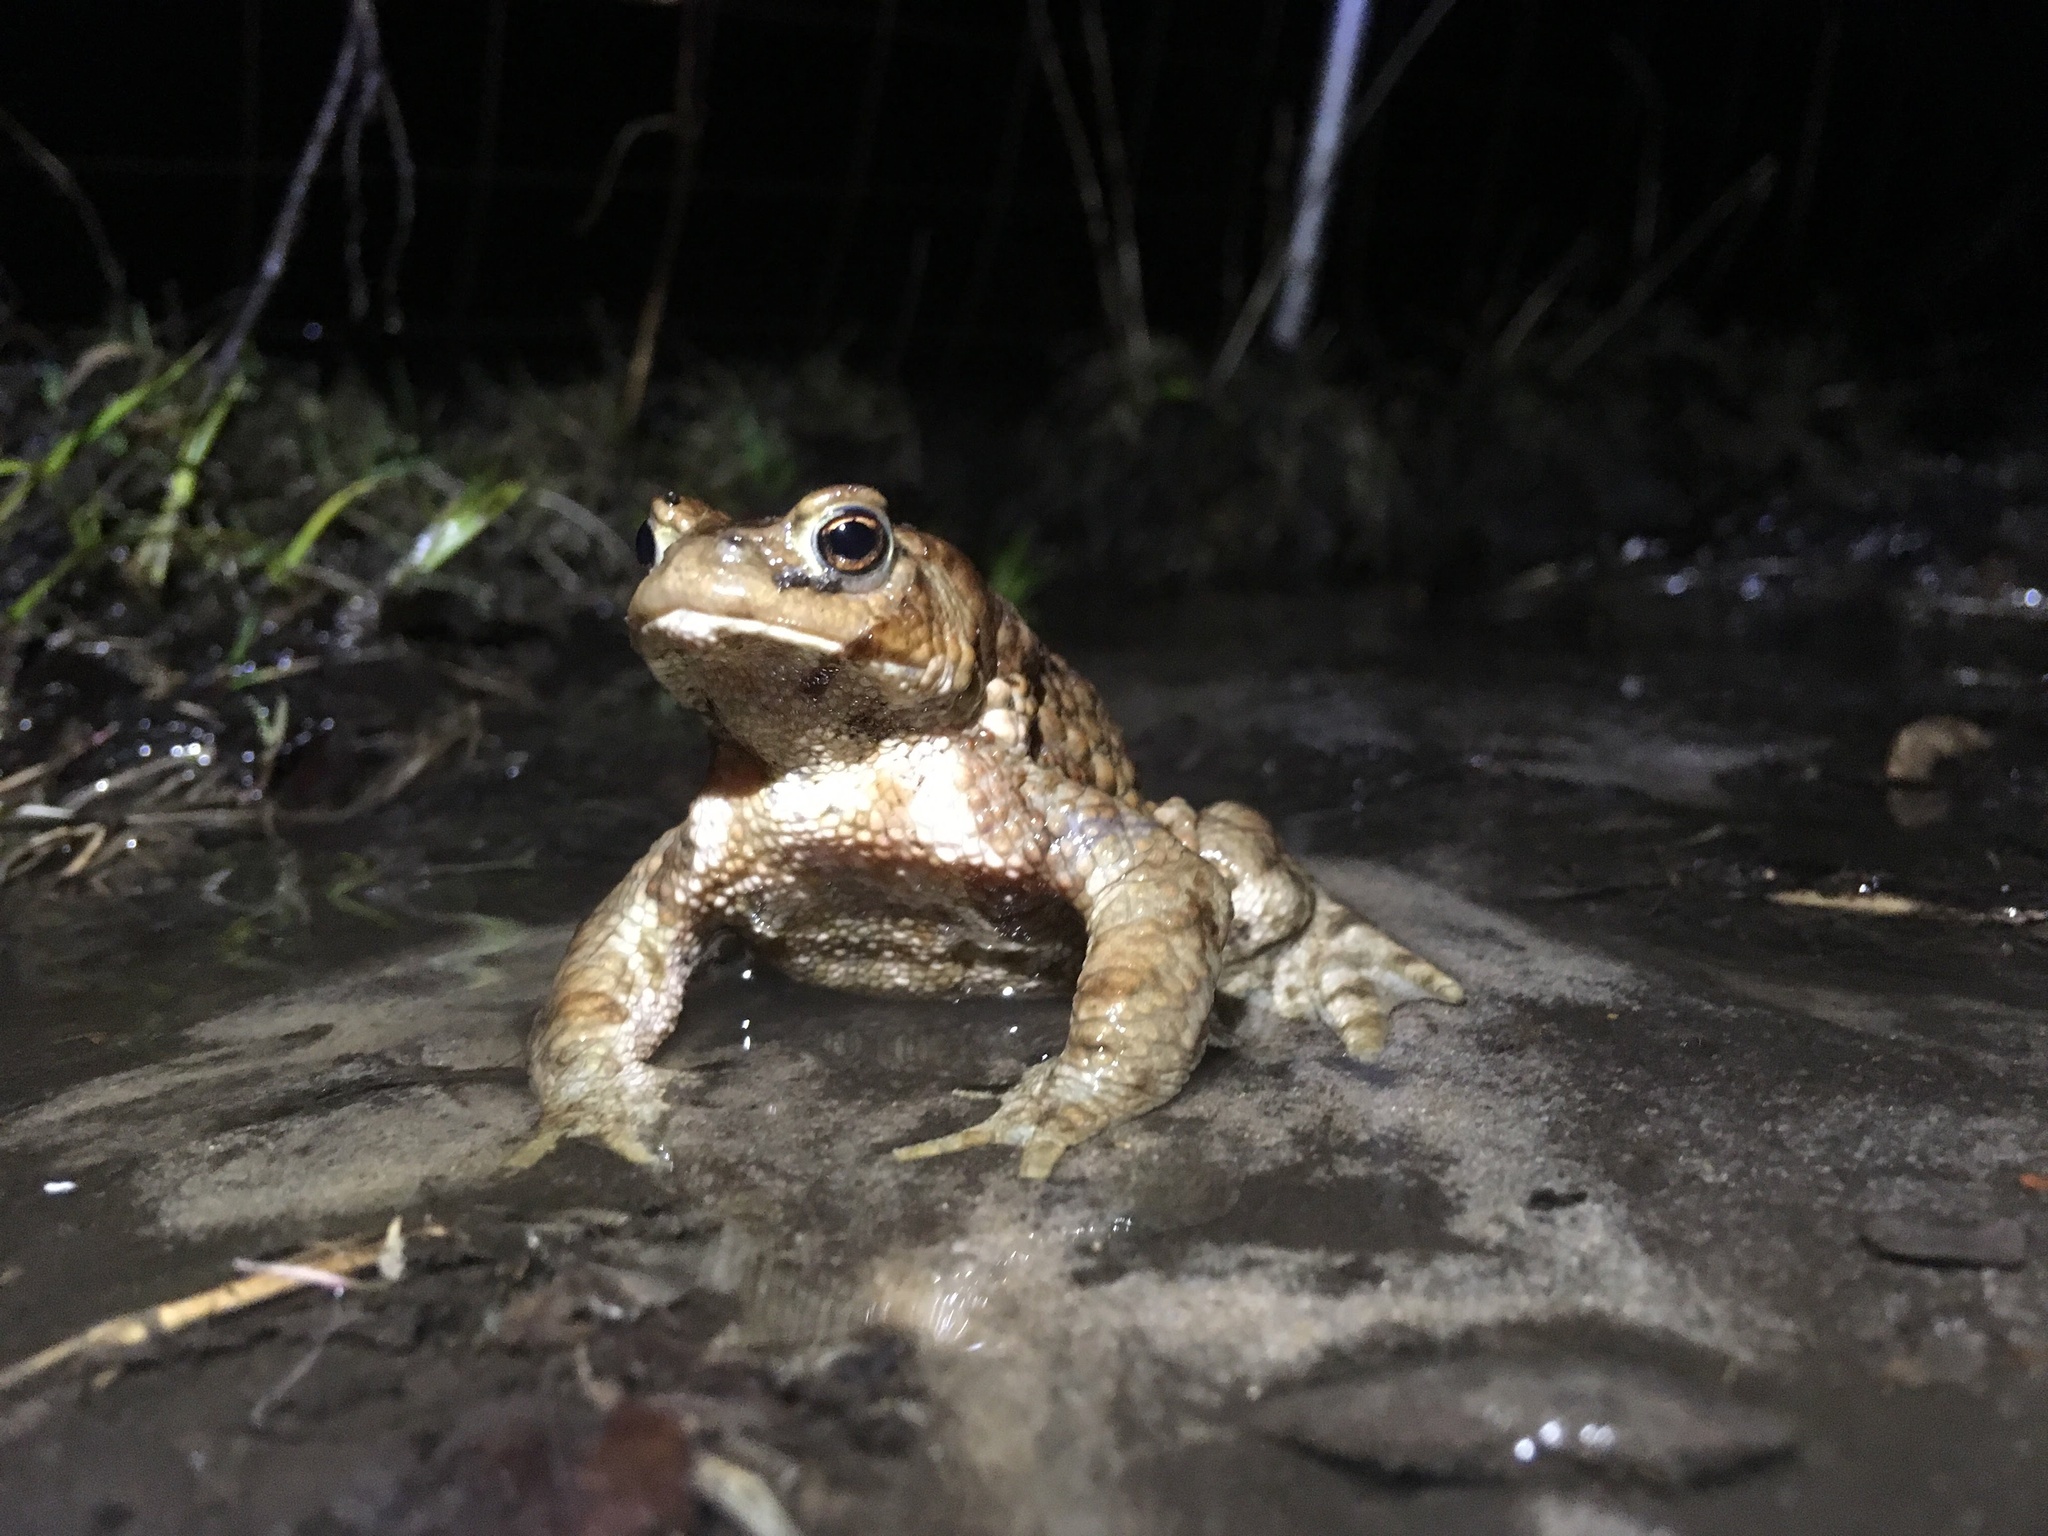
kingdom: Animalia
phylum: Chordata
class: Amphibia
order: Anura
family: Bufonidae
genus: Bufo
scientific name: Bufo bufo
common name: Common toad
